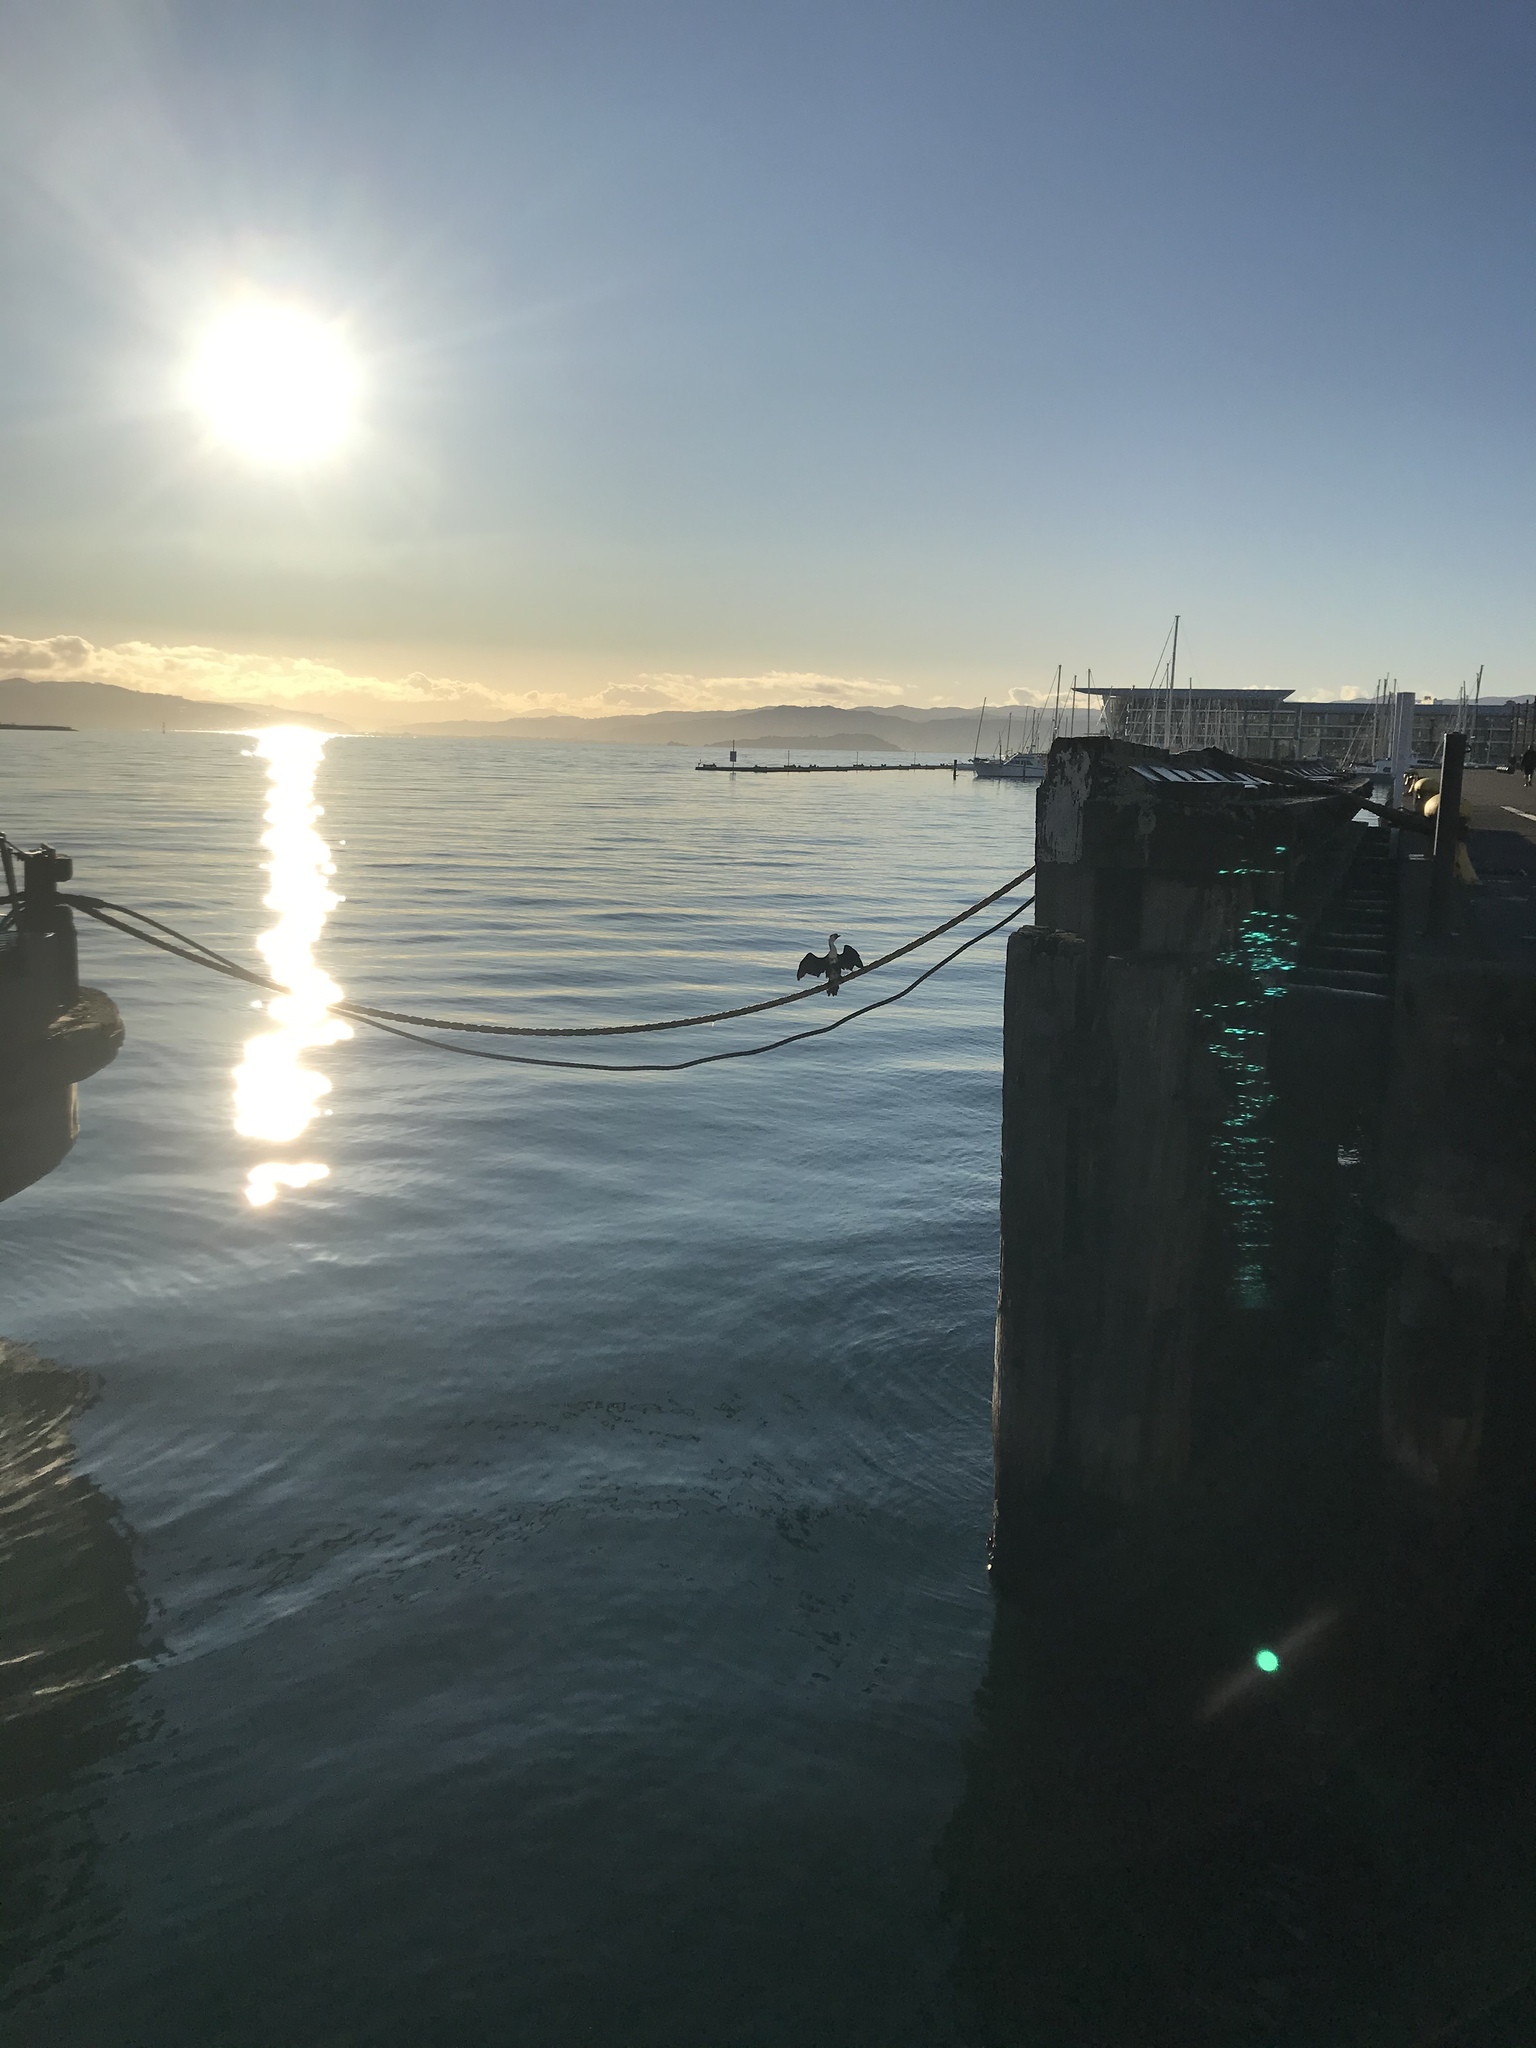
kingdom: Animalia
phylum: Chordata
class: Aves
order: Suliformes
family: Phalacrocoracidae
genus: Microcarbo
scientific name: Microcarbo melanoleucos
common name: Little pied cormorant
